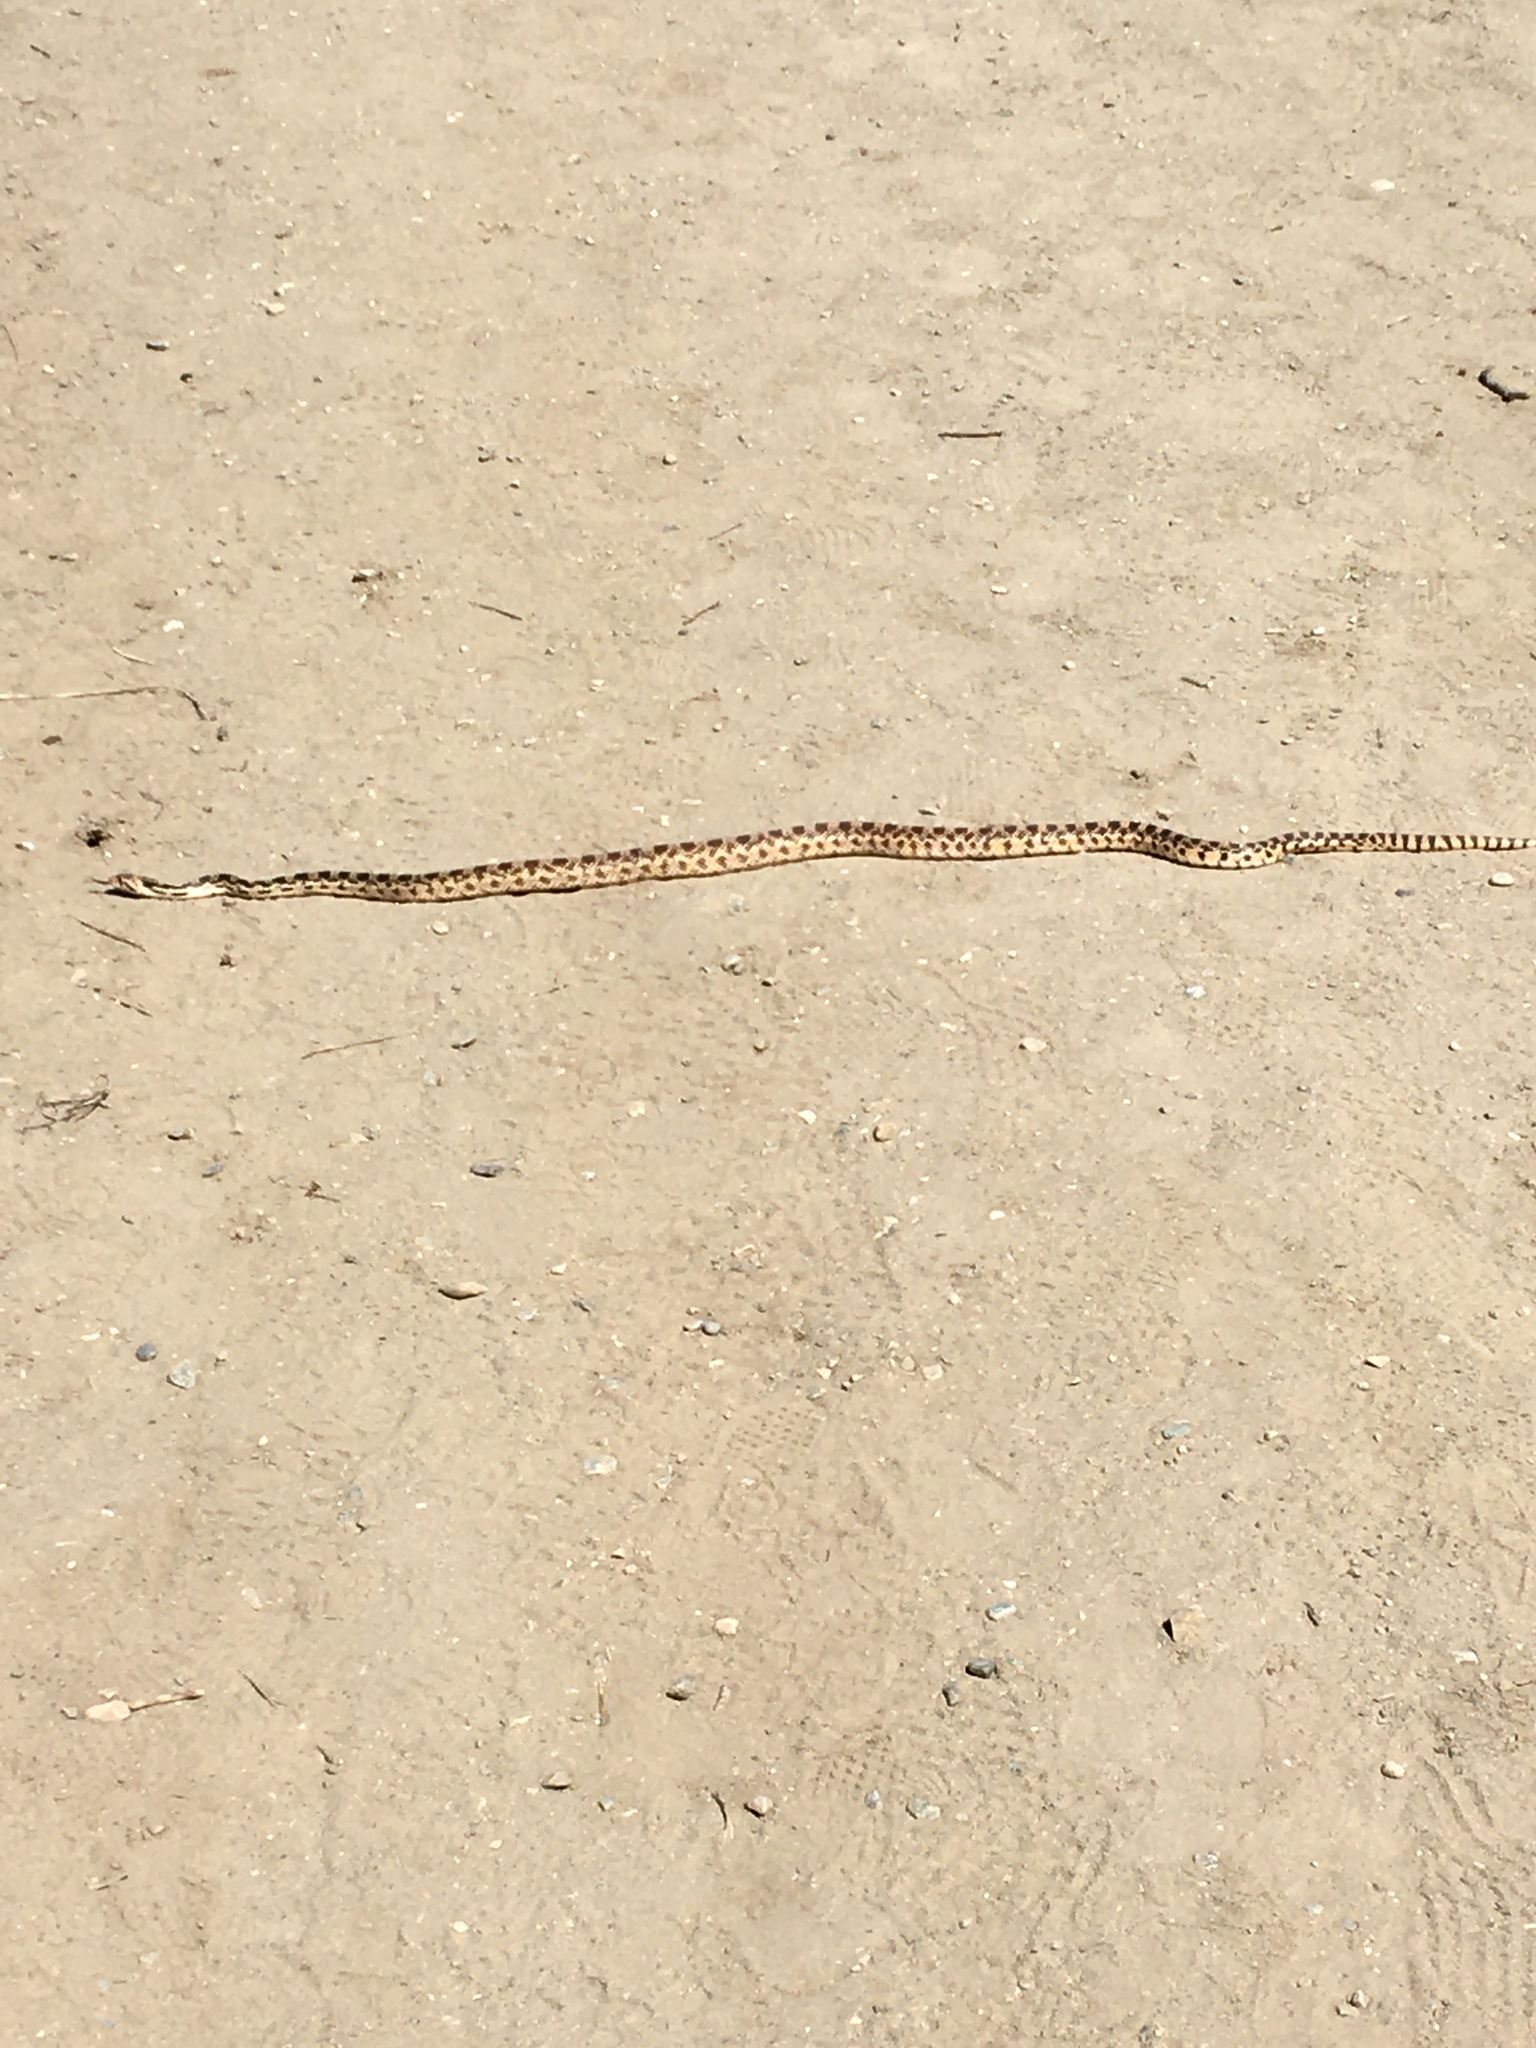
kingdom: Animalia
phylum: Chordata
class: Squamata
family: Colubridae
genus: Pituophis
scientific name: Pituophis catenifer
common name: Gopher snake
